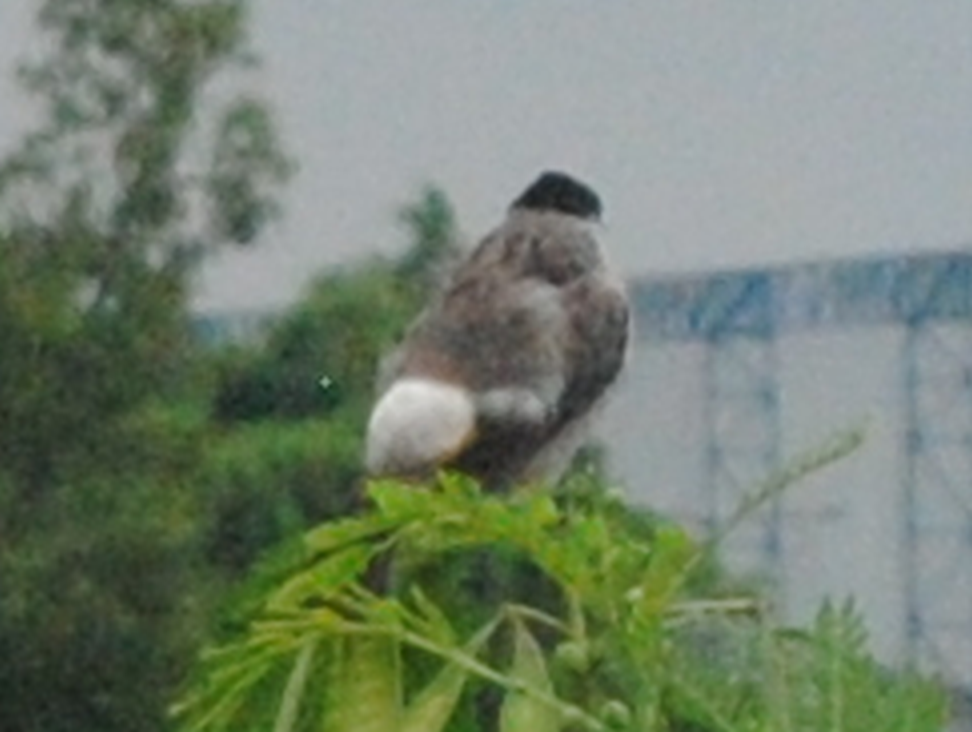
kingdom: Animalia
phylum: Chordata
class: Aves
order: Passeriformes
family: Pycnonotidae
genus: Pycnonotus
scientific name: Pycnonotus aurigaster
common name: Sooty-headed bulbul
